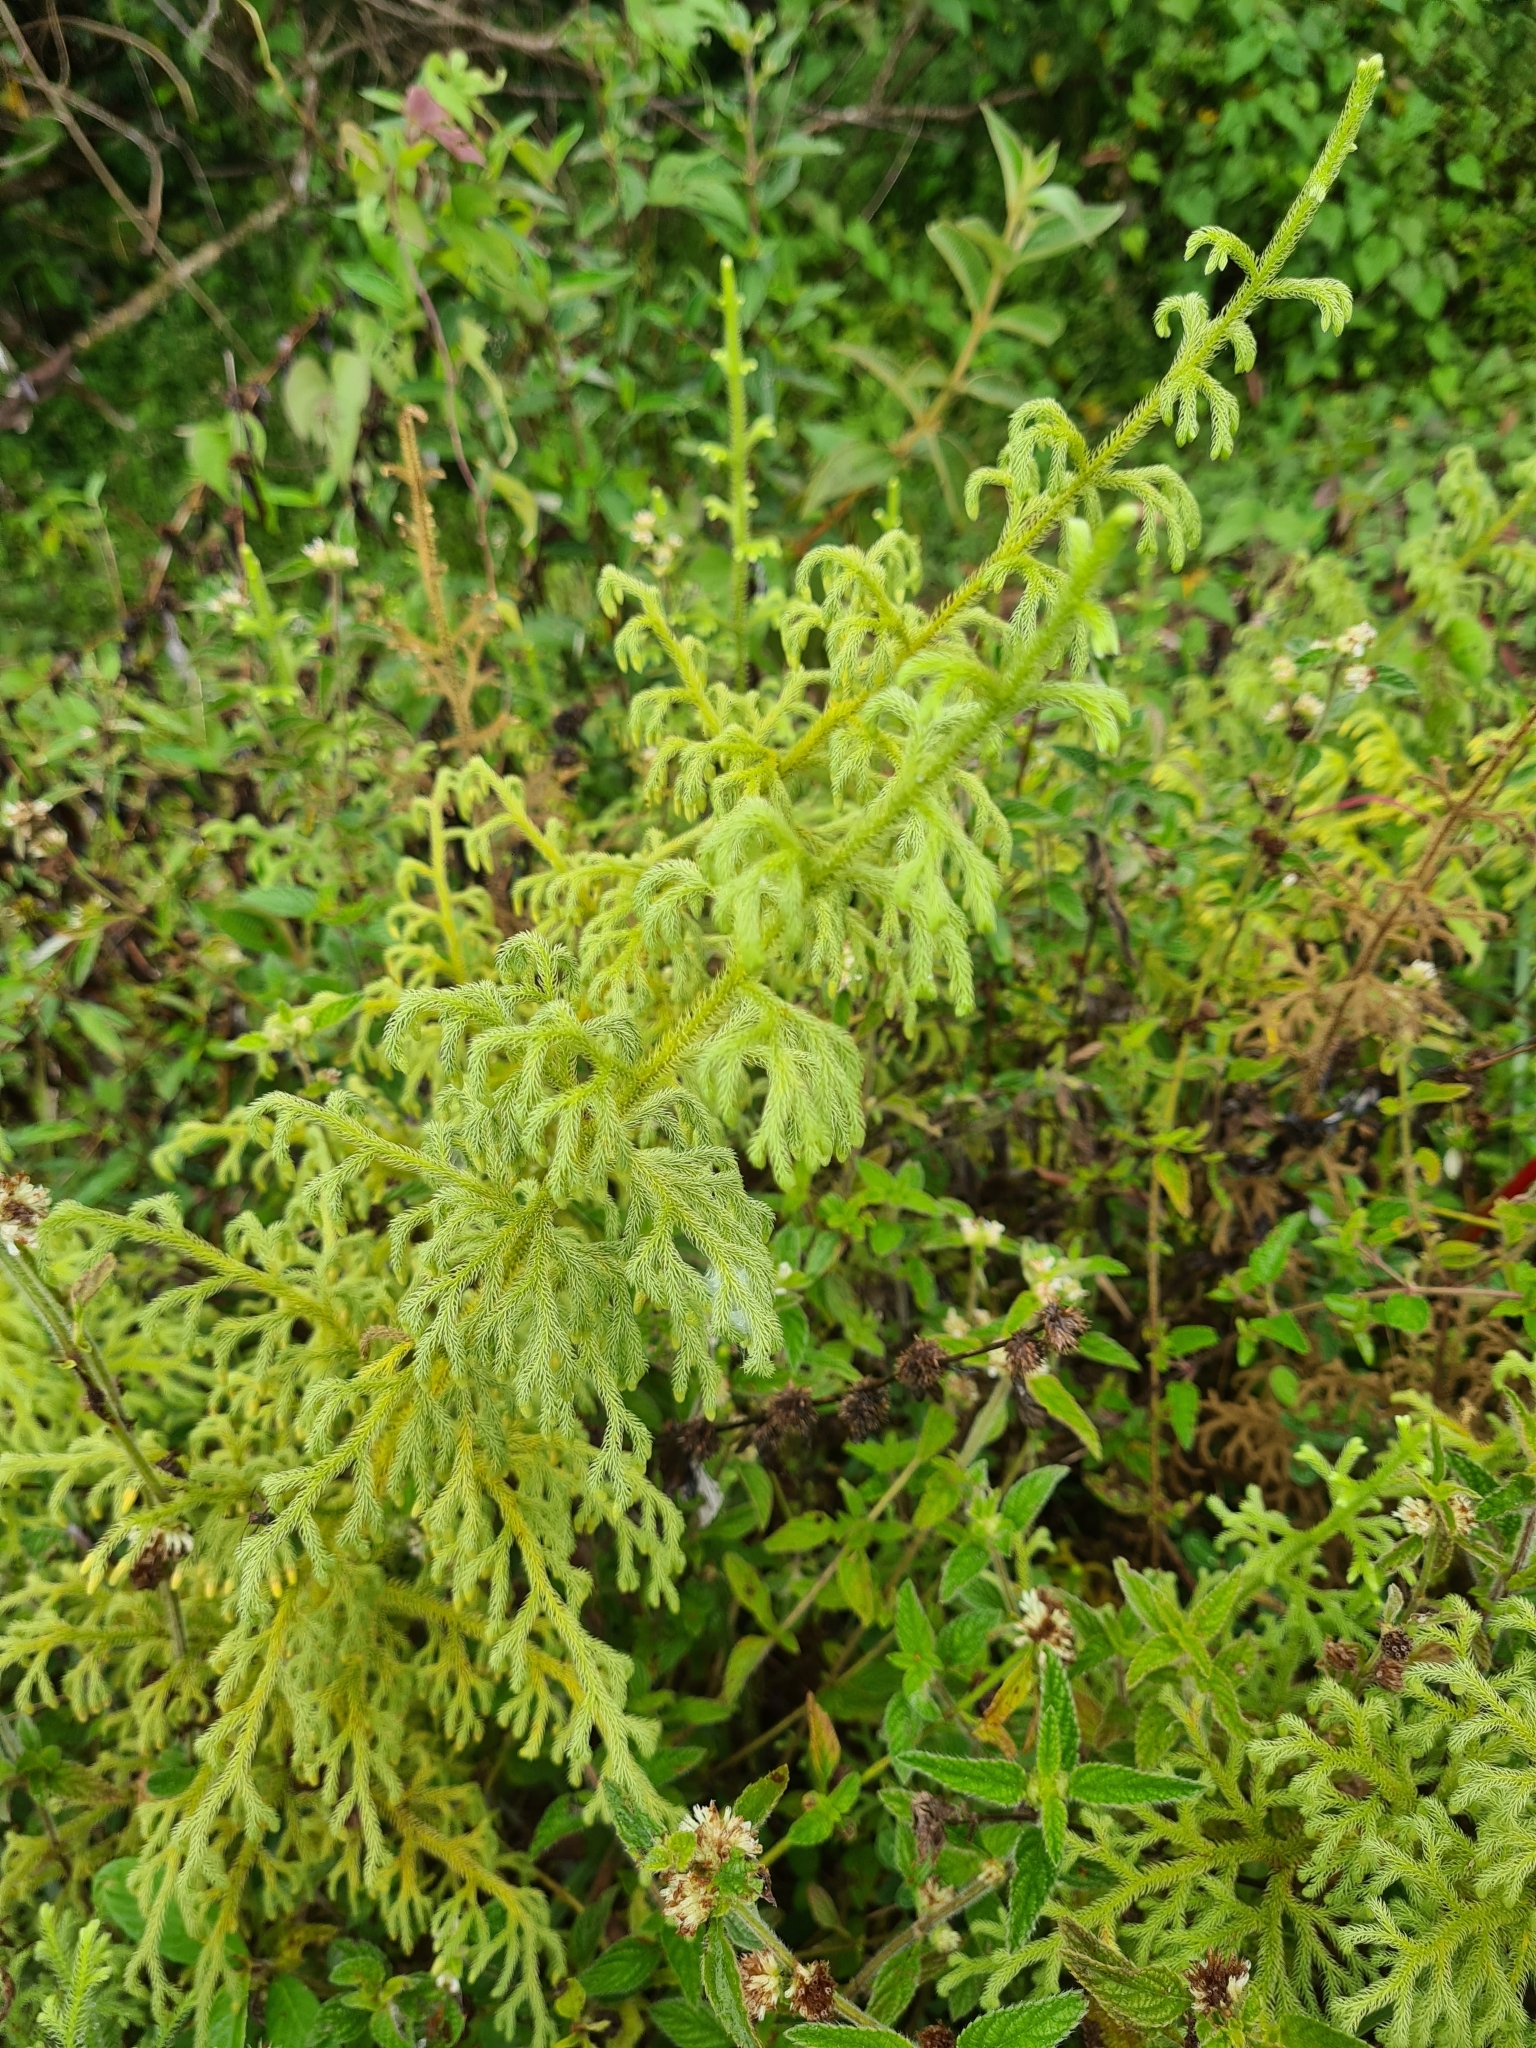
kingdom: Plantae
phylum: Tracheophyta
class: Lycopodiopsida
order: Lycopodiales
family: Lycopodiaceae
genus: Palhinhaea
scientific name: Palhinhaea cernua
